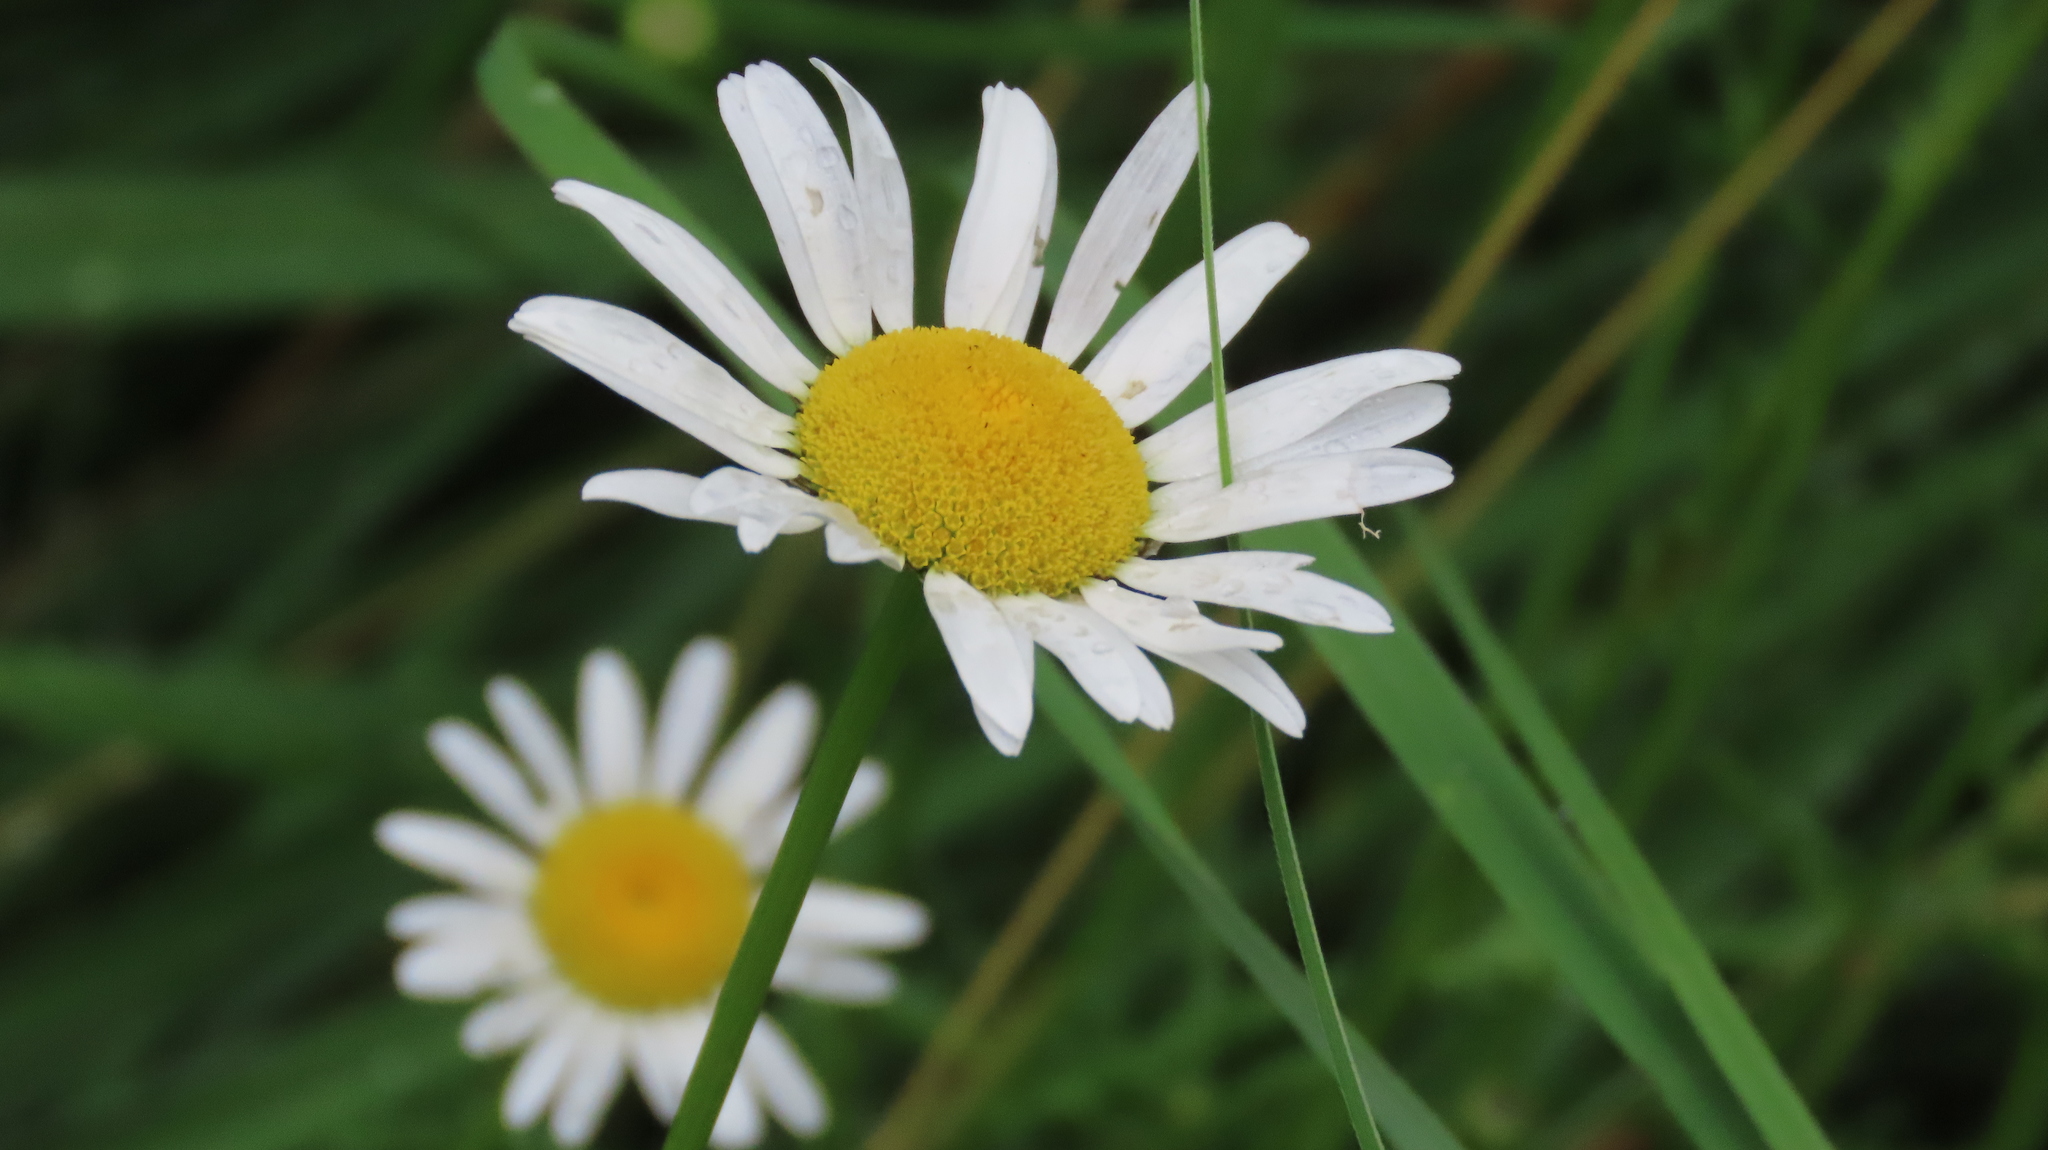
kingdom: Plantae
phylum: Tracheophyta
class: Magnoliopsida
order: Asterales
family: Asteraceae
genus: Leucanthemum
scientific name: Leucanthemum vulgare
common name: Oxeye daisy
